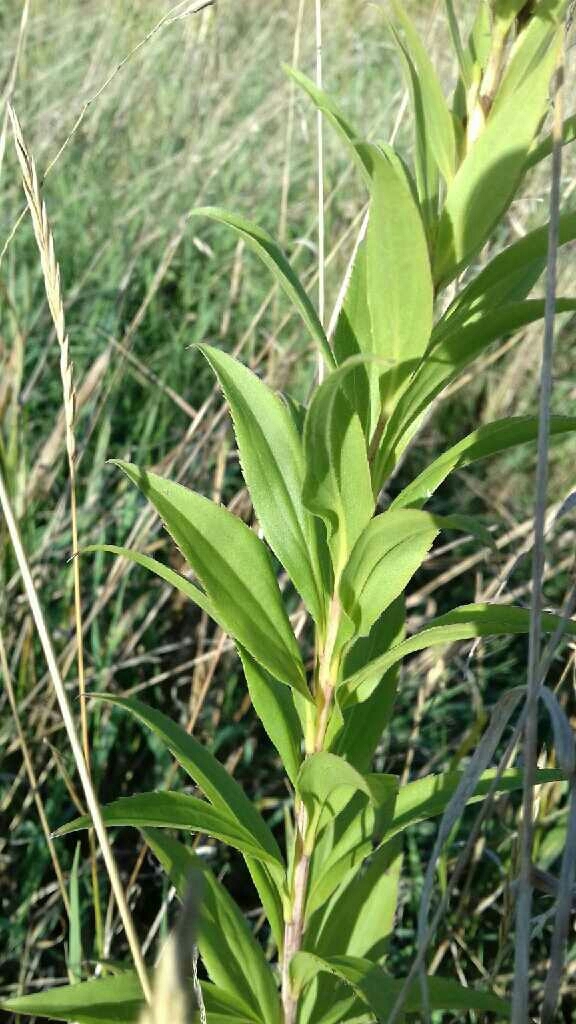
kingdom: Plantae
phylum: Tracheophyta
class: Magnoliopsida
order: Asterales
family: Asteraceae
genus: Solidago
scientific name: Solidago gigantea
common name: Giant goldenrod
